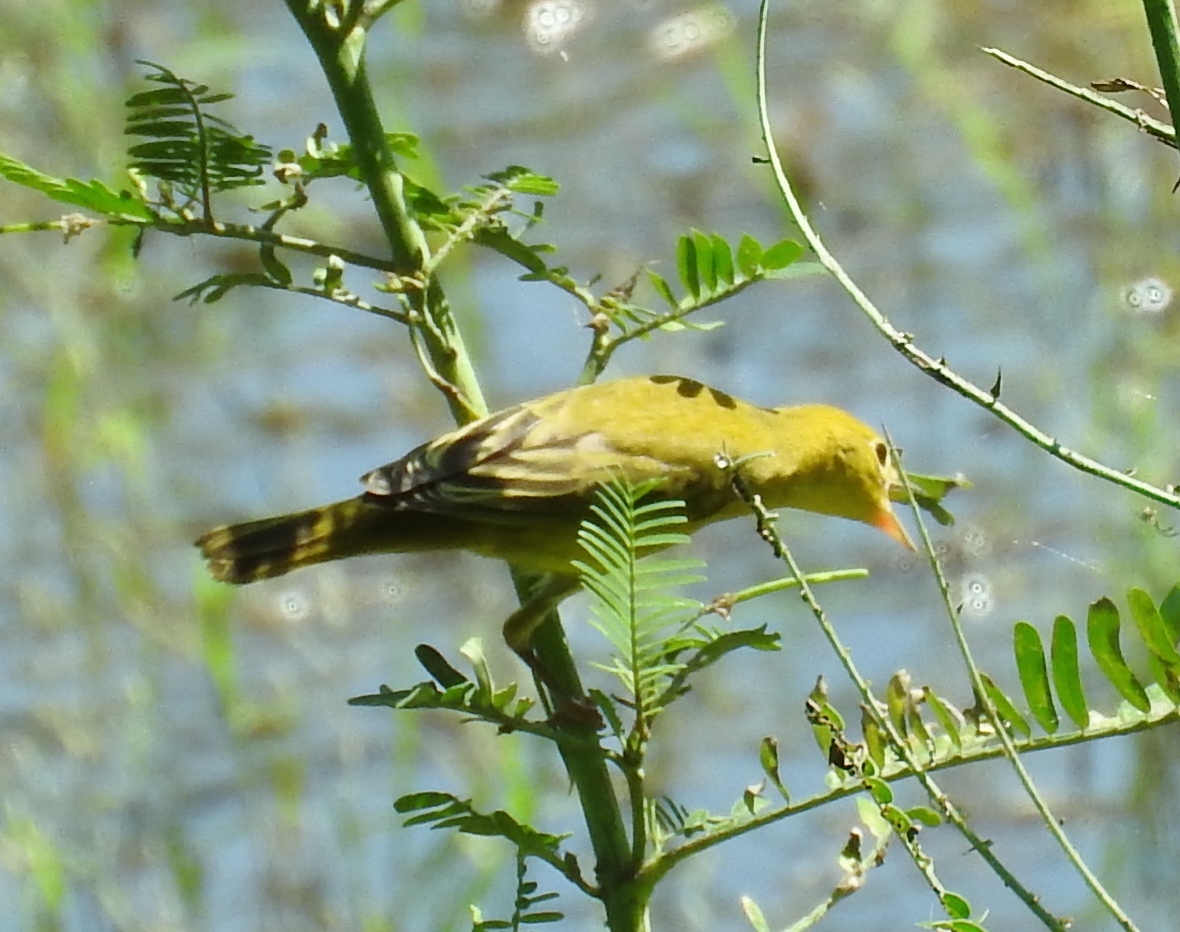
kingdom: Animalia
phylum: Chordata
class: Aves
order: Passeriformes
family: Parulidae
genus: Setophaga
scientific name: Setophaga petechia
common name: Yellow warbler
